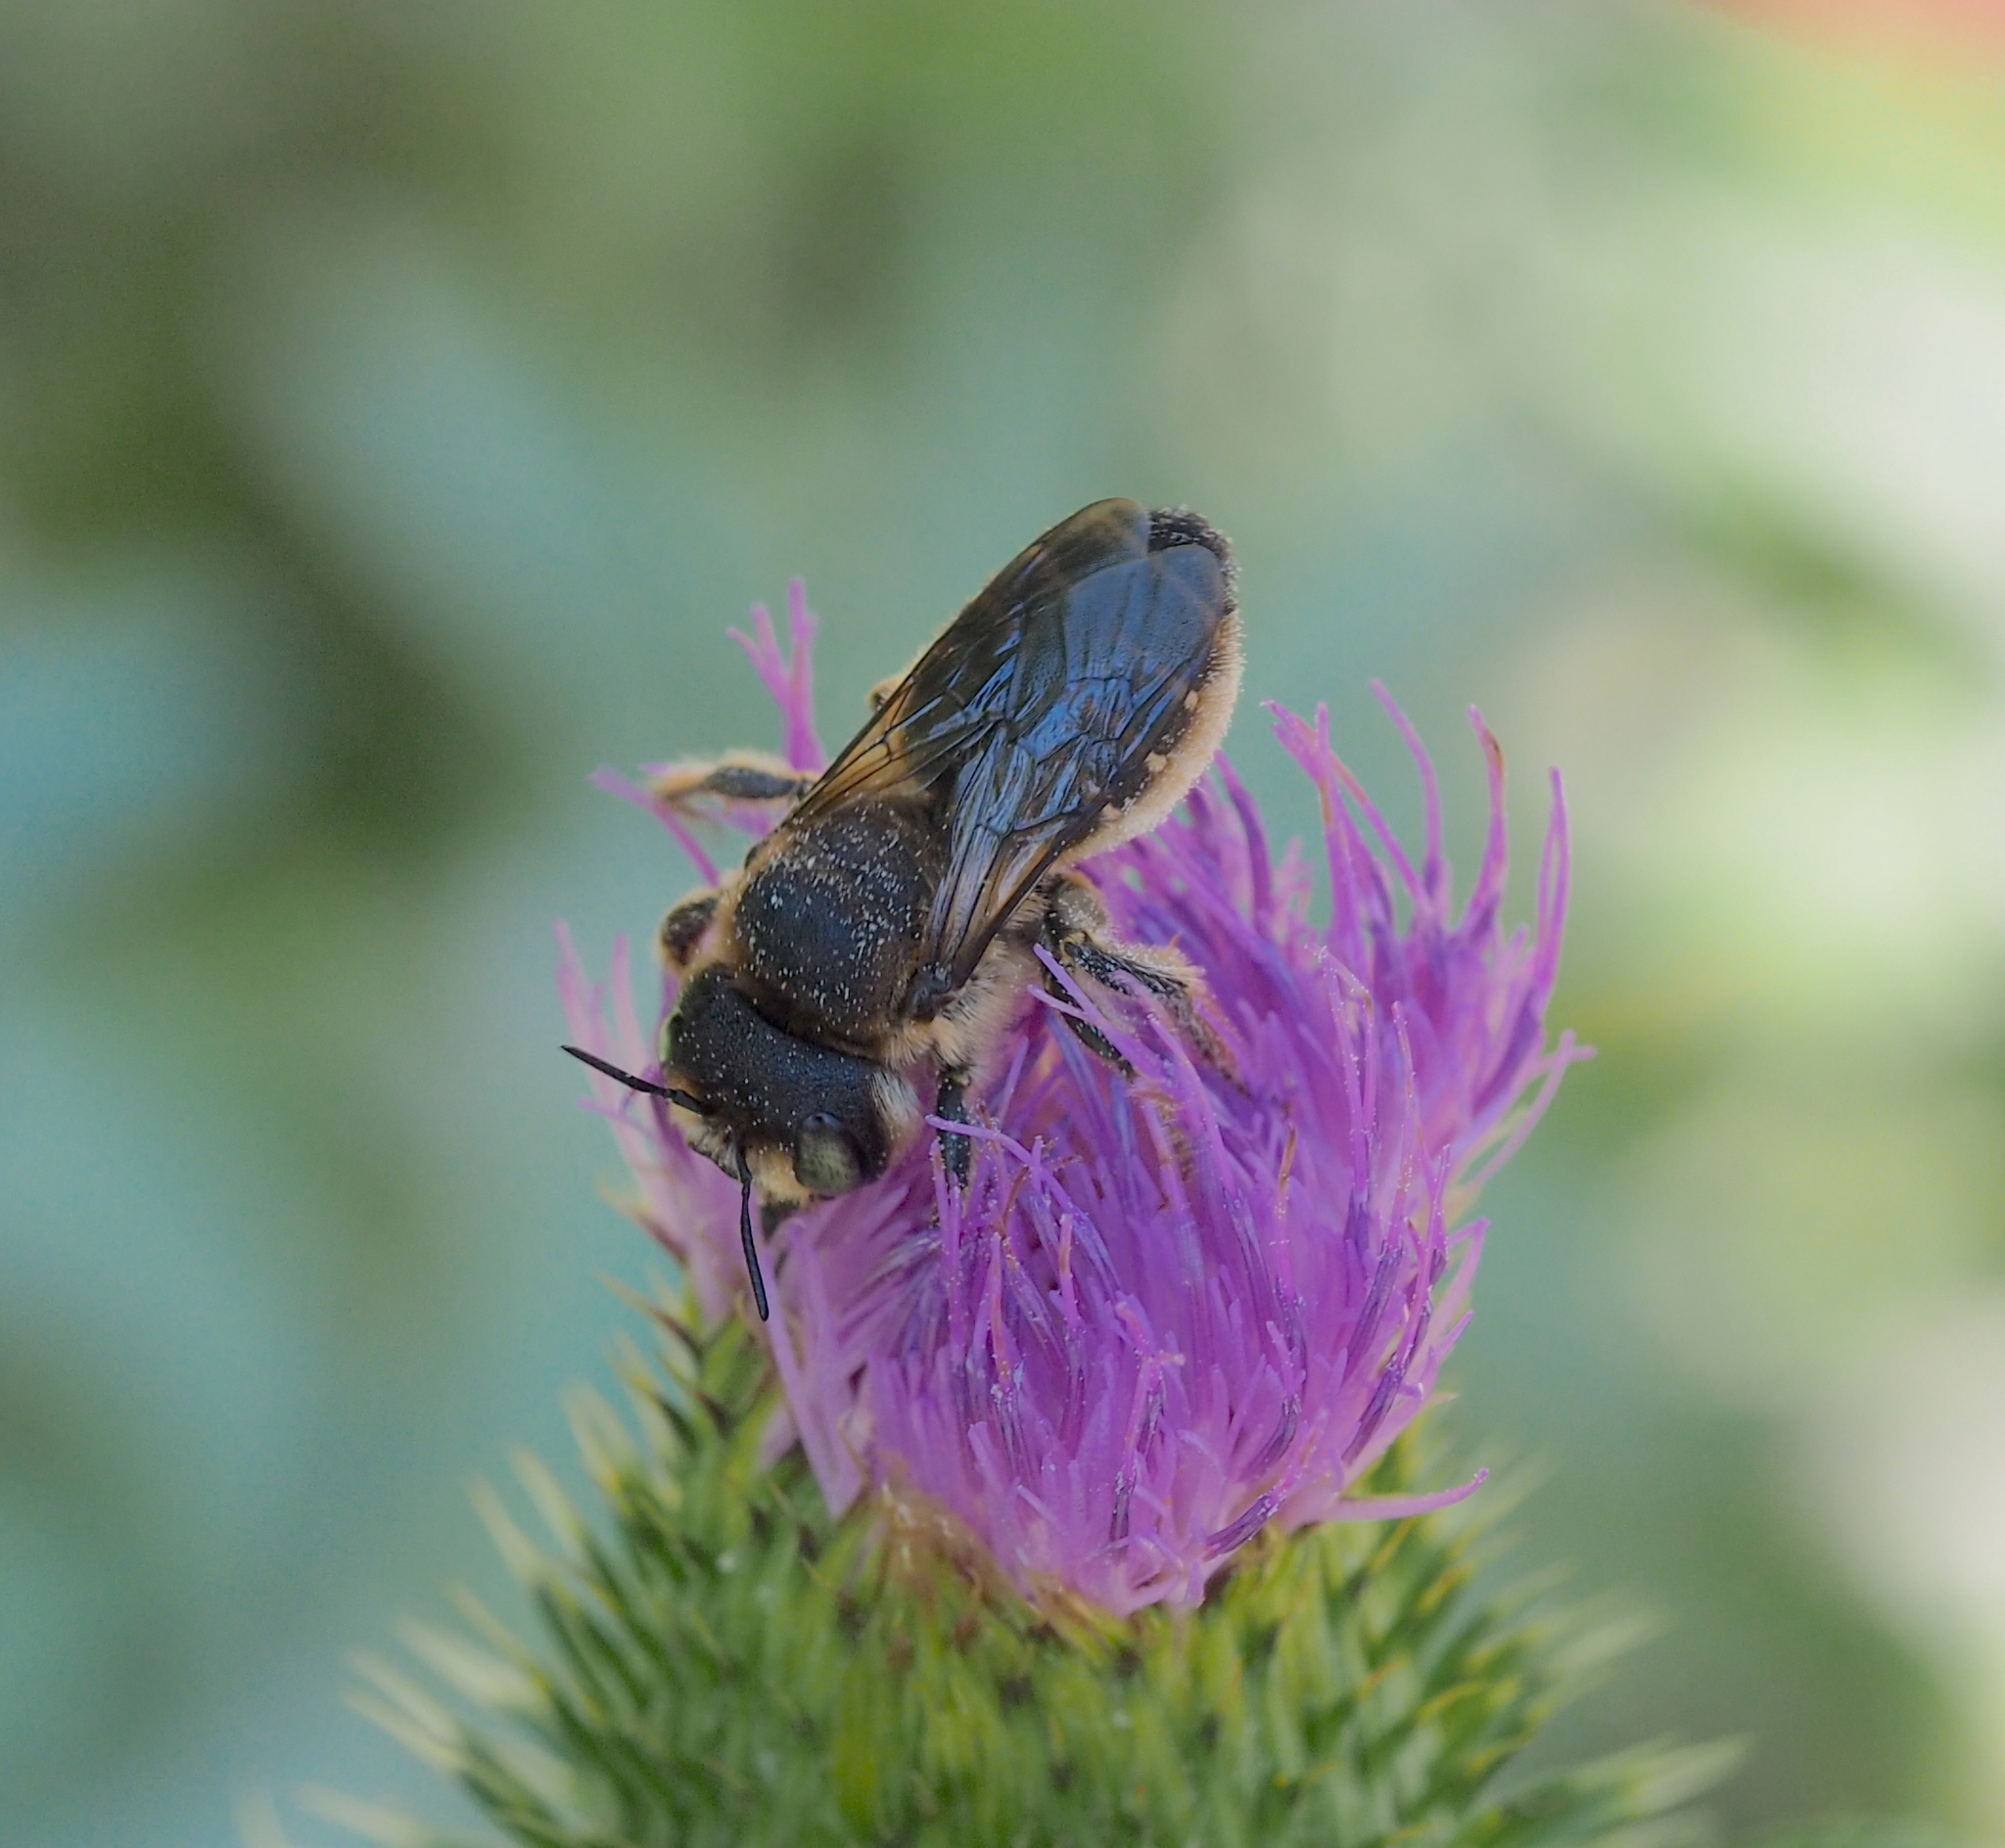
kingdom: Animalia
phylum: Arthropoda
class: Insecta
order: Hymenoptera
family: Megachilidae
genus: Lithurgus
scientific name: Lithurgus cornutus
